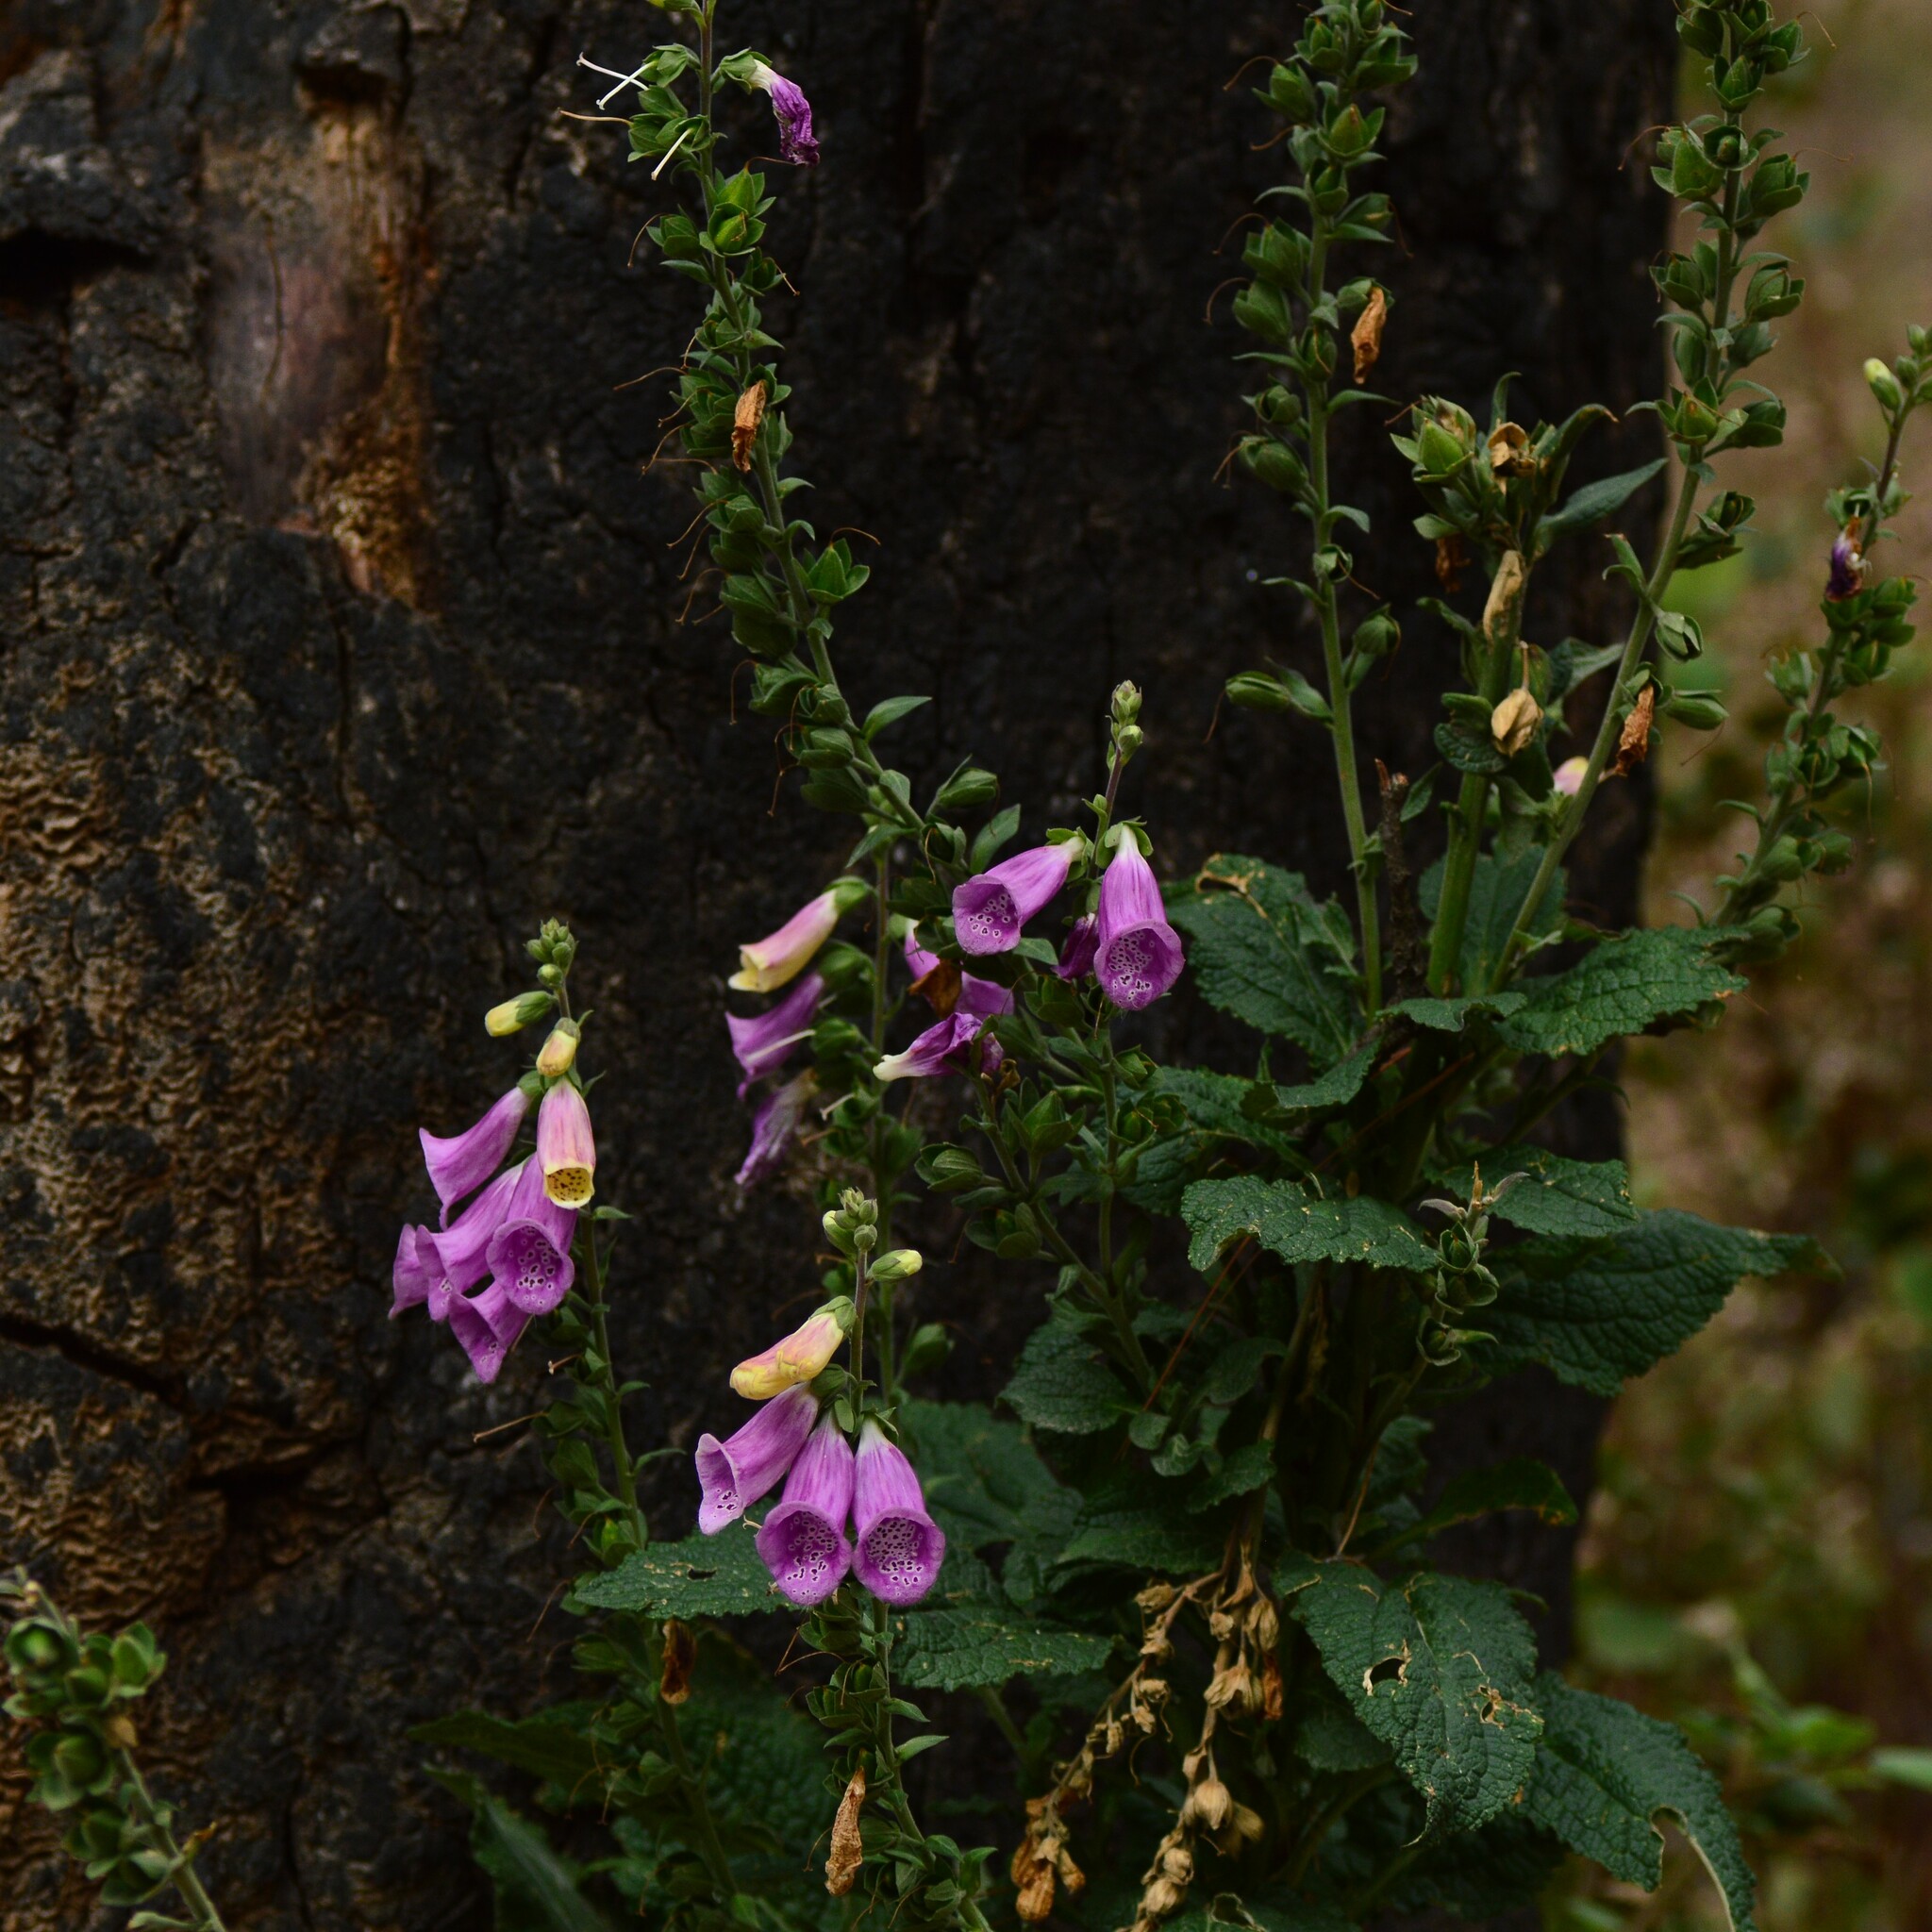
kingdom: Plantae
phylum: Tracheophyta
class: Magnoliopsida
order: Lamiales
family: Plantaginaceae
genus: Digitalis
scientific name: Digitalis purpurea
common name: Foxglove
